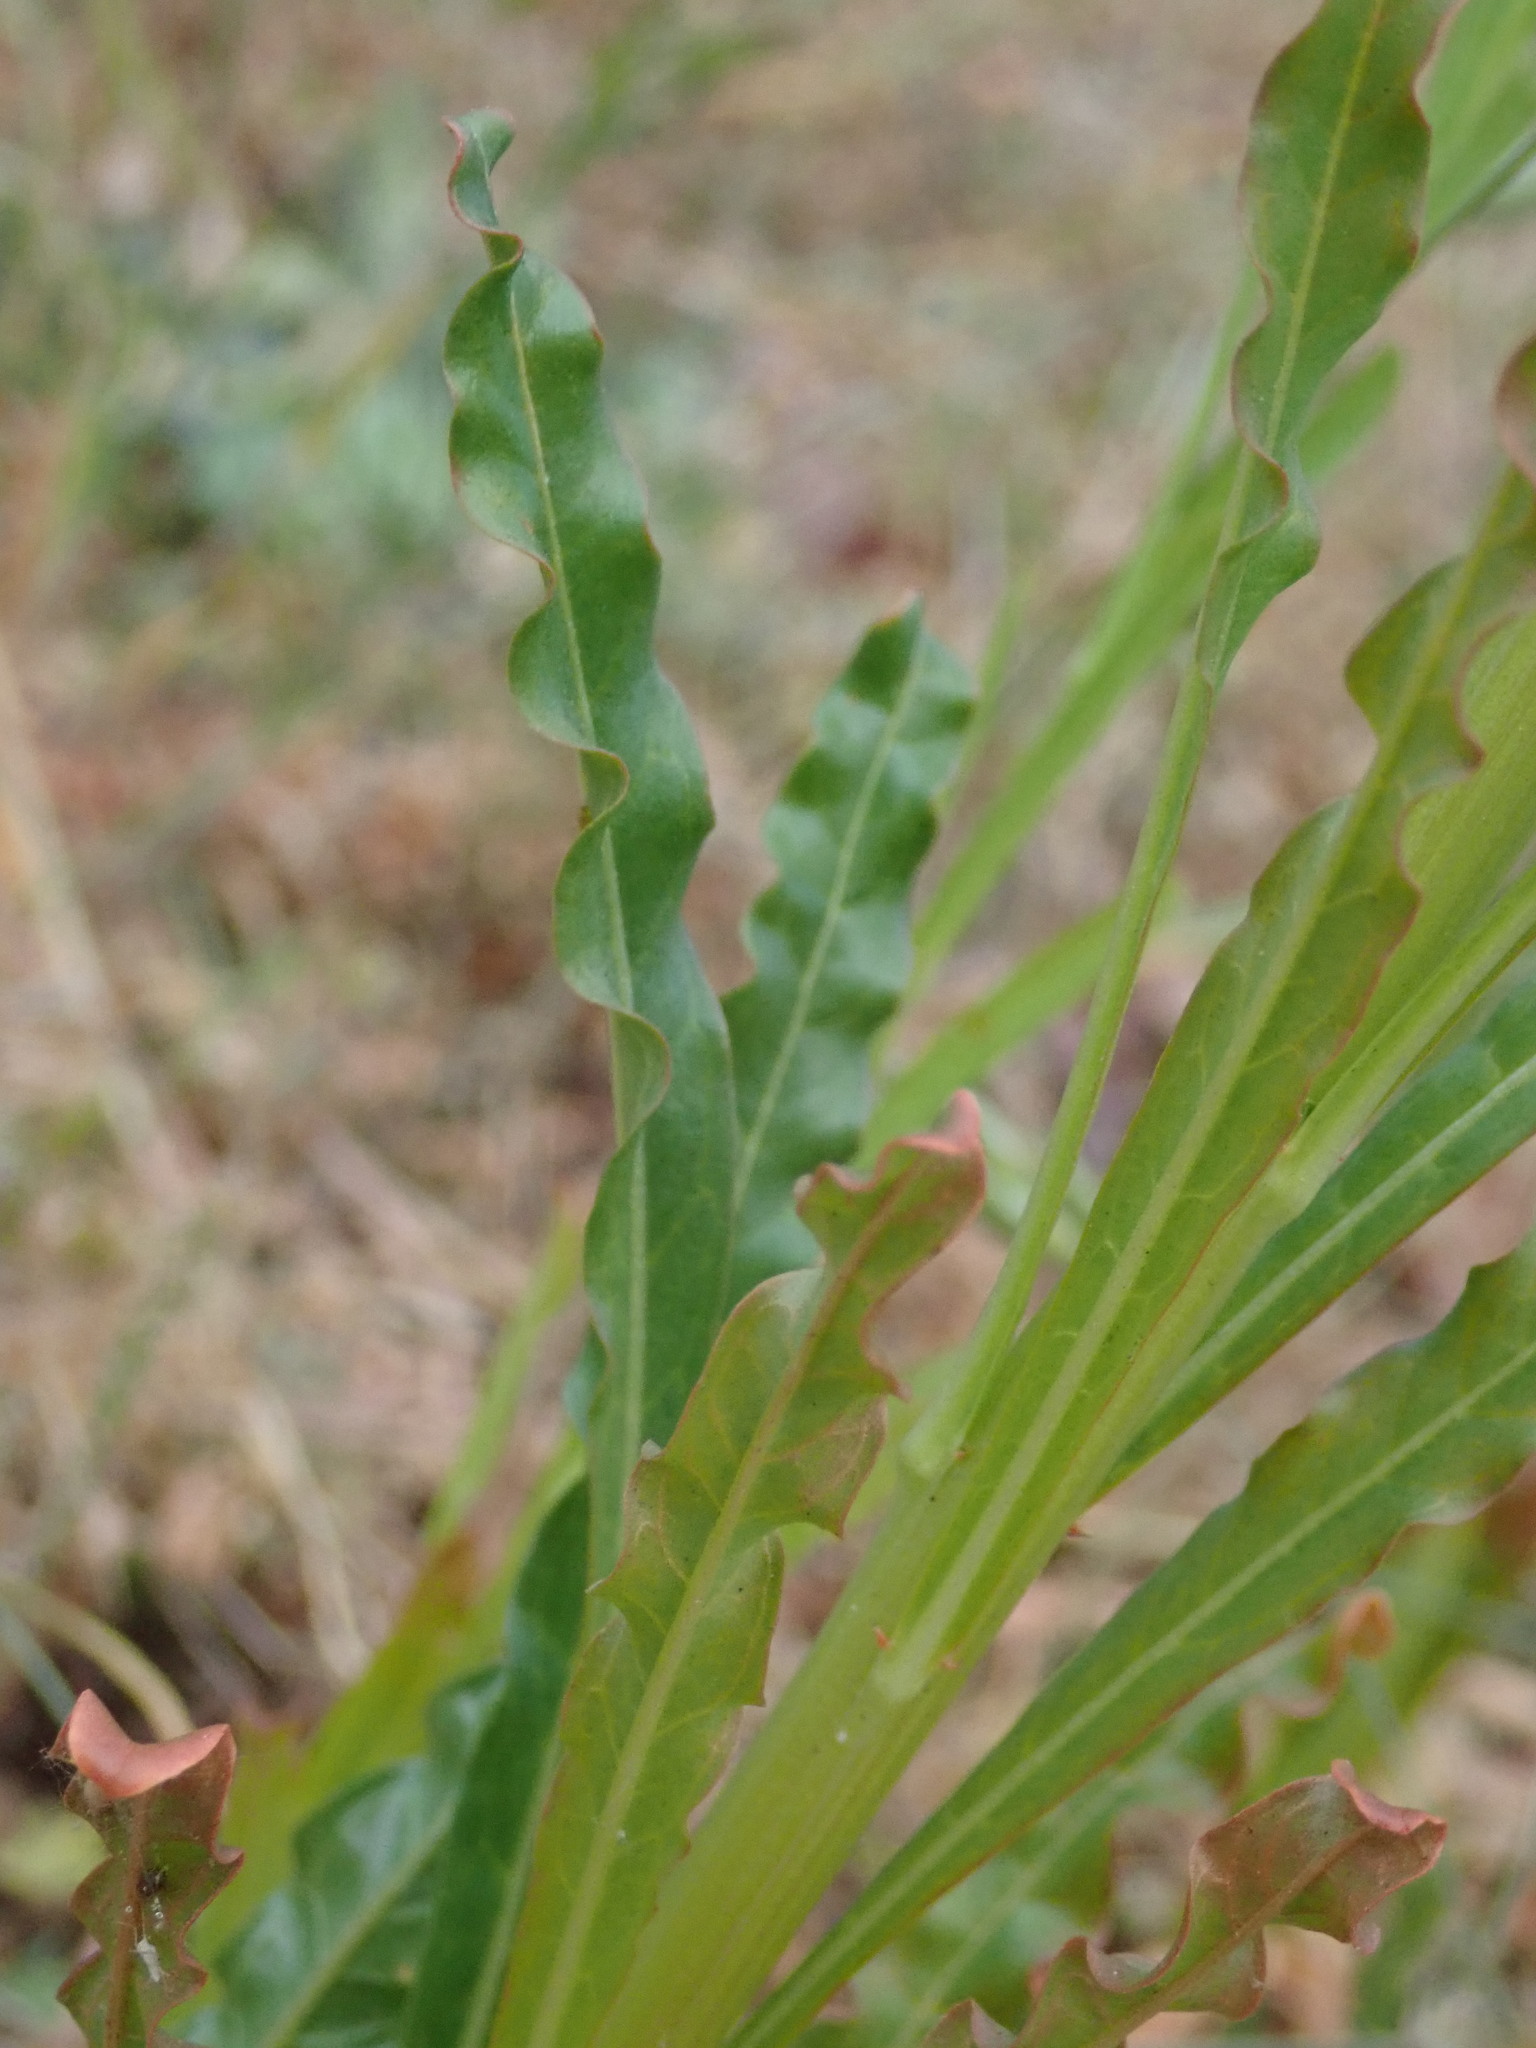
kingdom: Plantae
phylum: Tracheophyta
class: Magnoliopsida
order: Brassicales
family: Resedaceae
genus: Reseda
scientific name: Reseda luteola
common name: Weld
